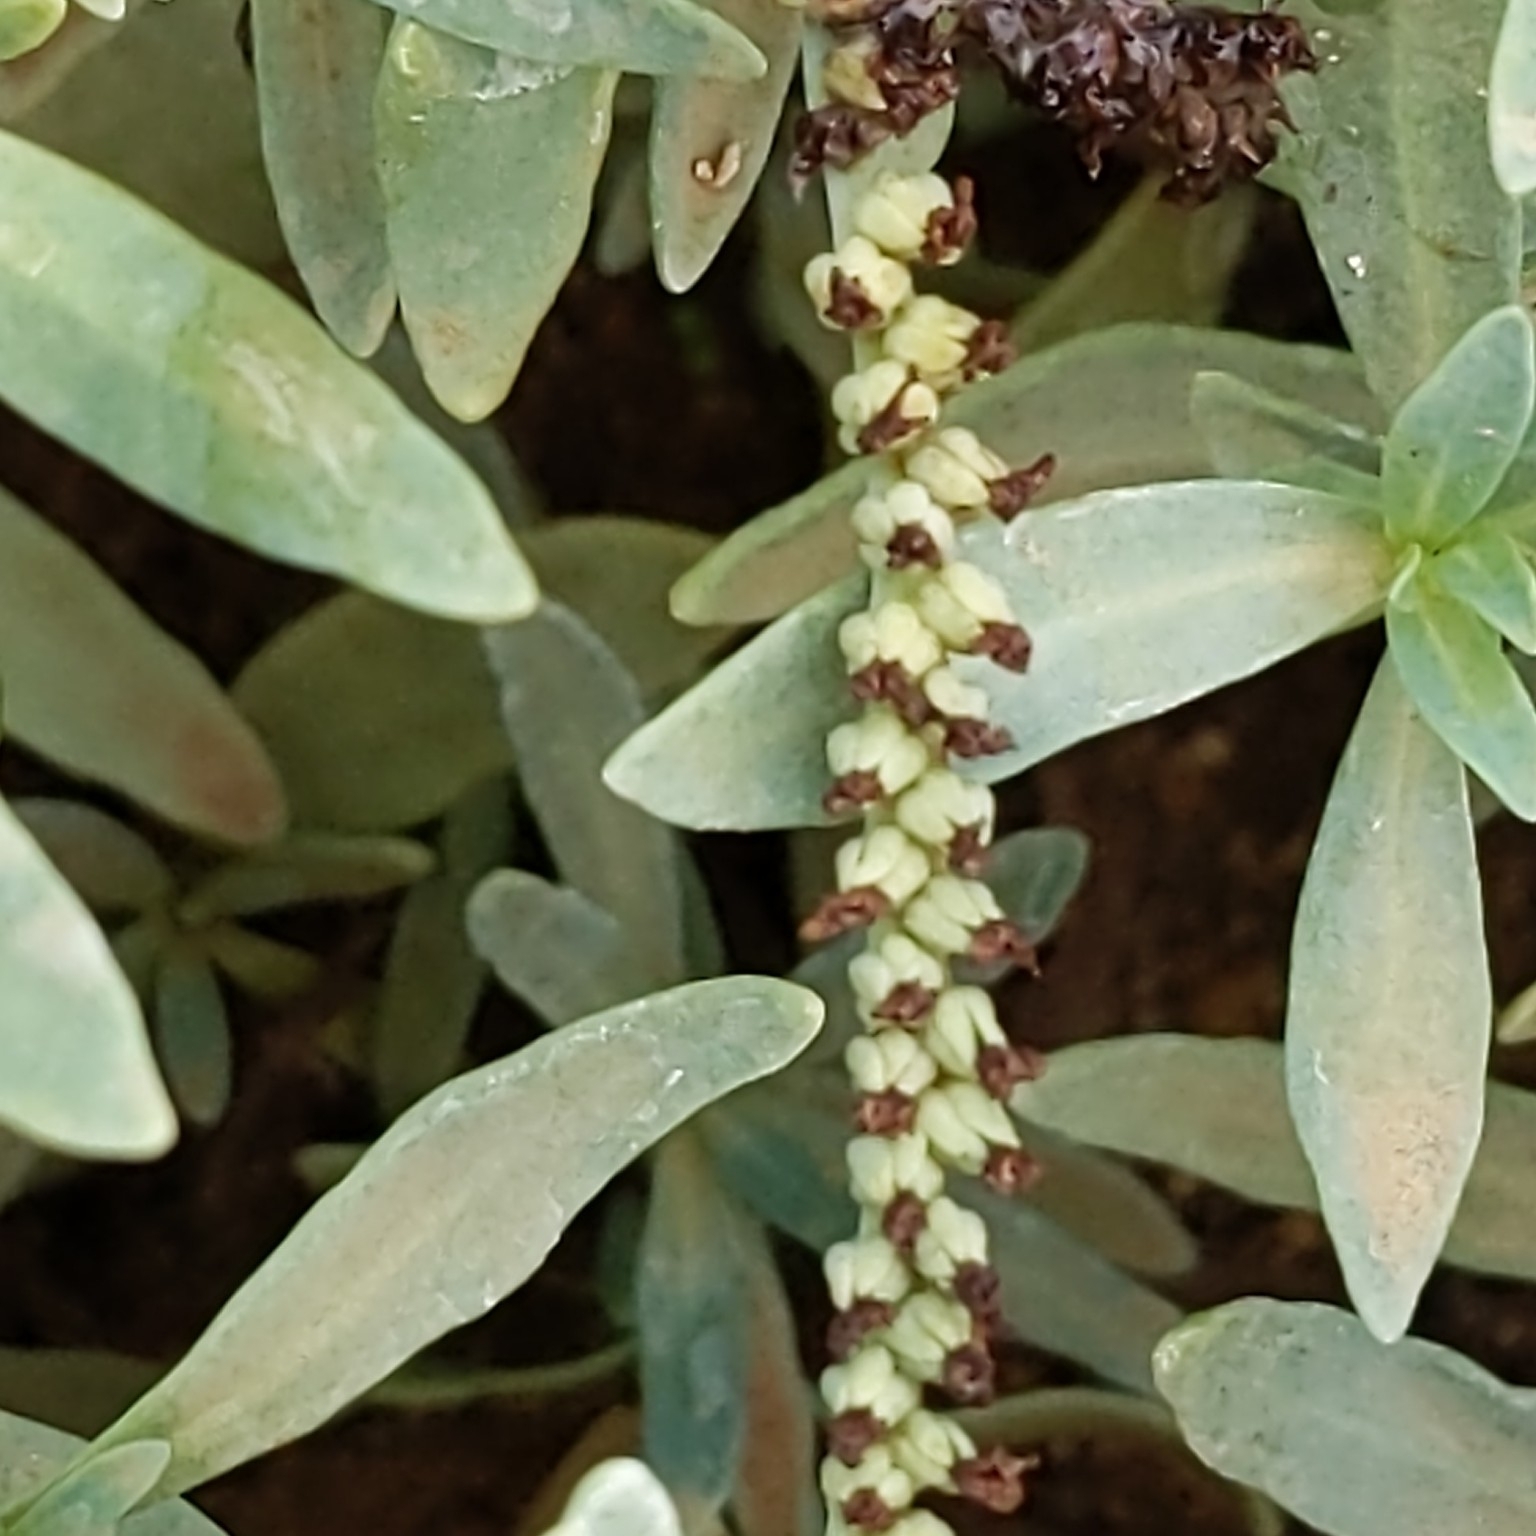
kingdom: Plantae
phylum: Tracheophyta
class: Magnoliopsida
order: Boraginales
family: Heliotropiaceae
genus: Heliotropium
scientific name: Heliotropium curassavicum
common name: Seaside heliotrope
